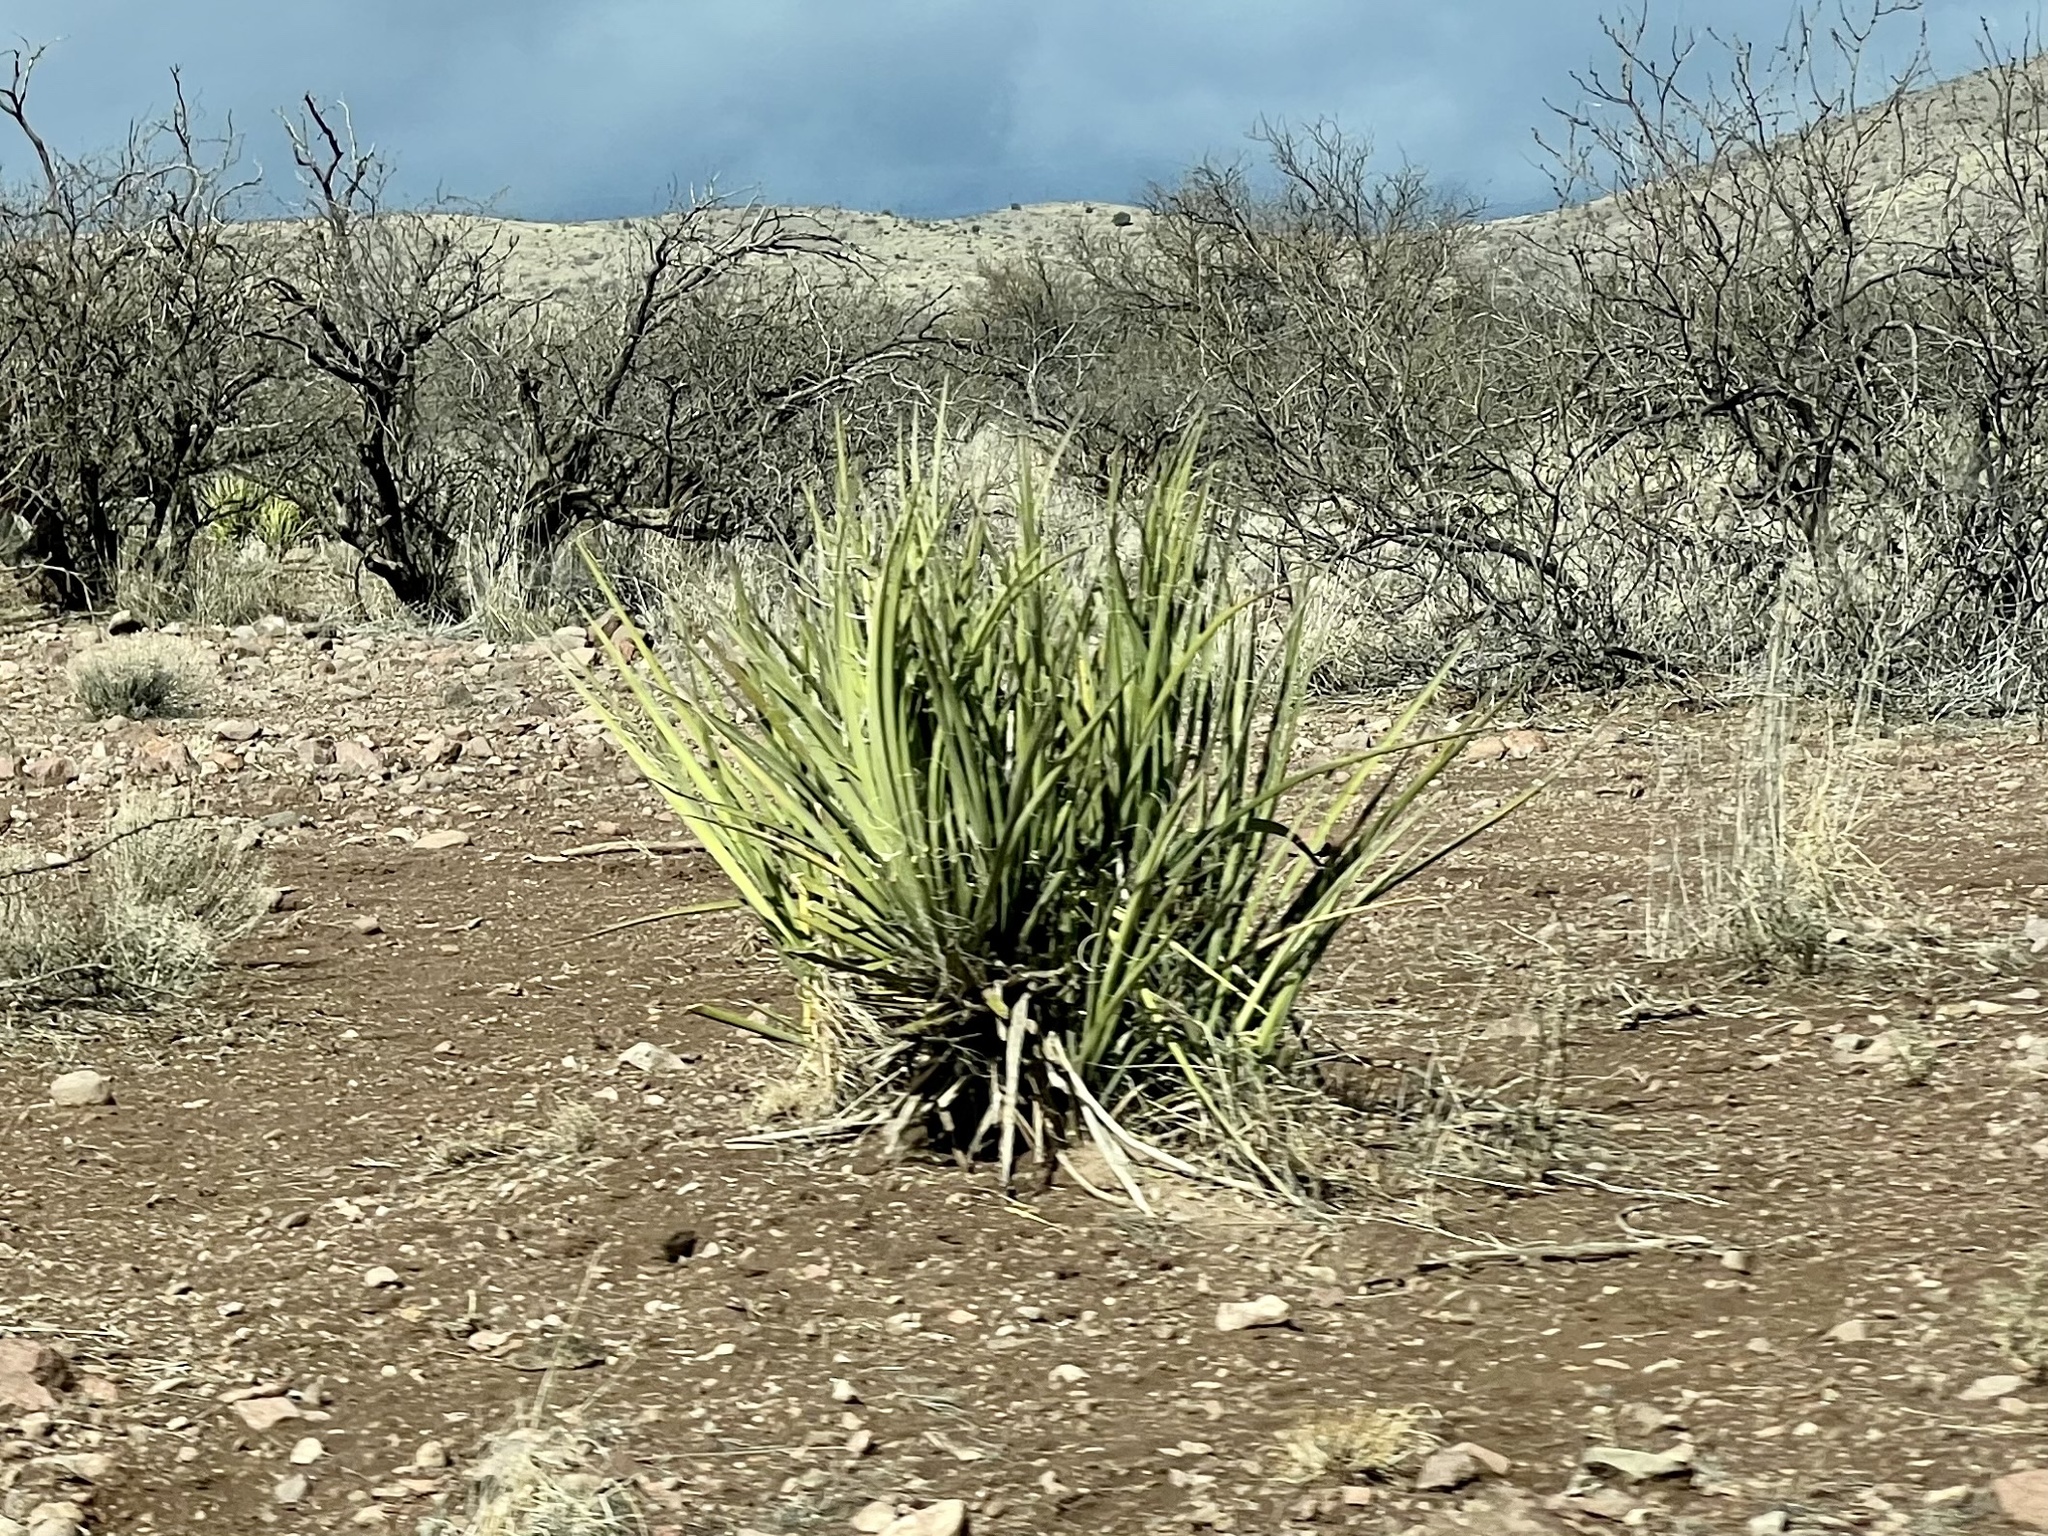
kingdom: Plantae
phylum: Tracheophyta
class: Liliopsida
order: Asparagales
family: Asparagaceae
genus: Yucca
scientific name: Yucca baccata
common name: Banana yucca
